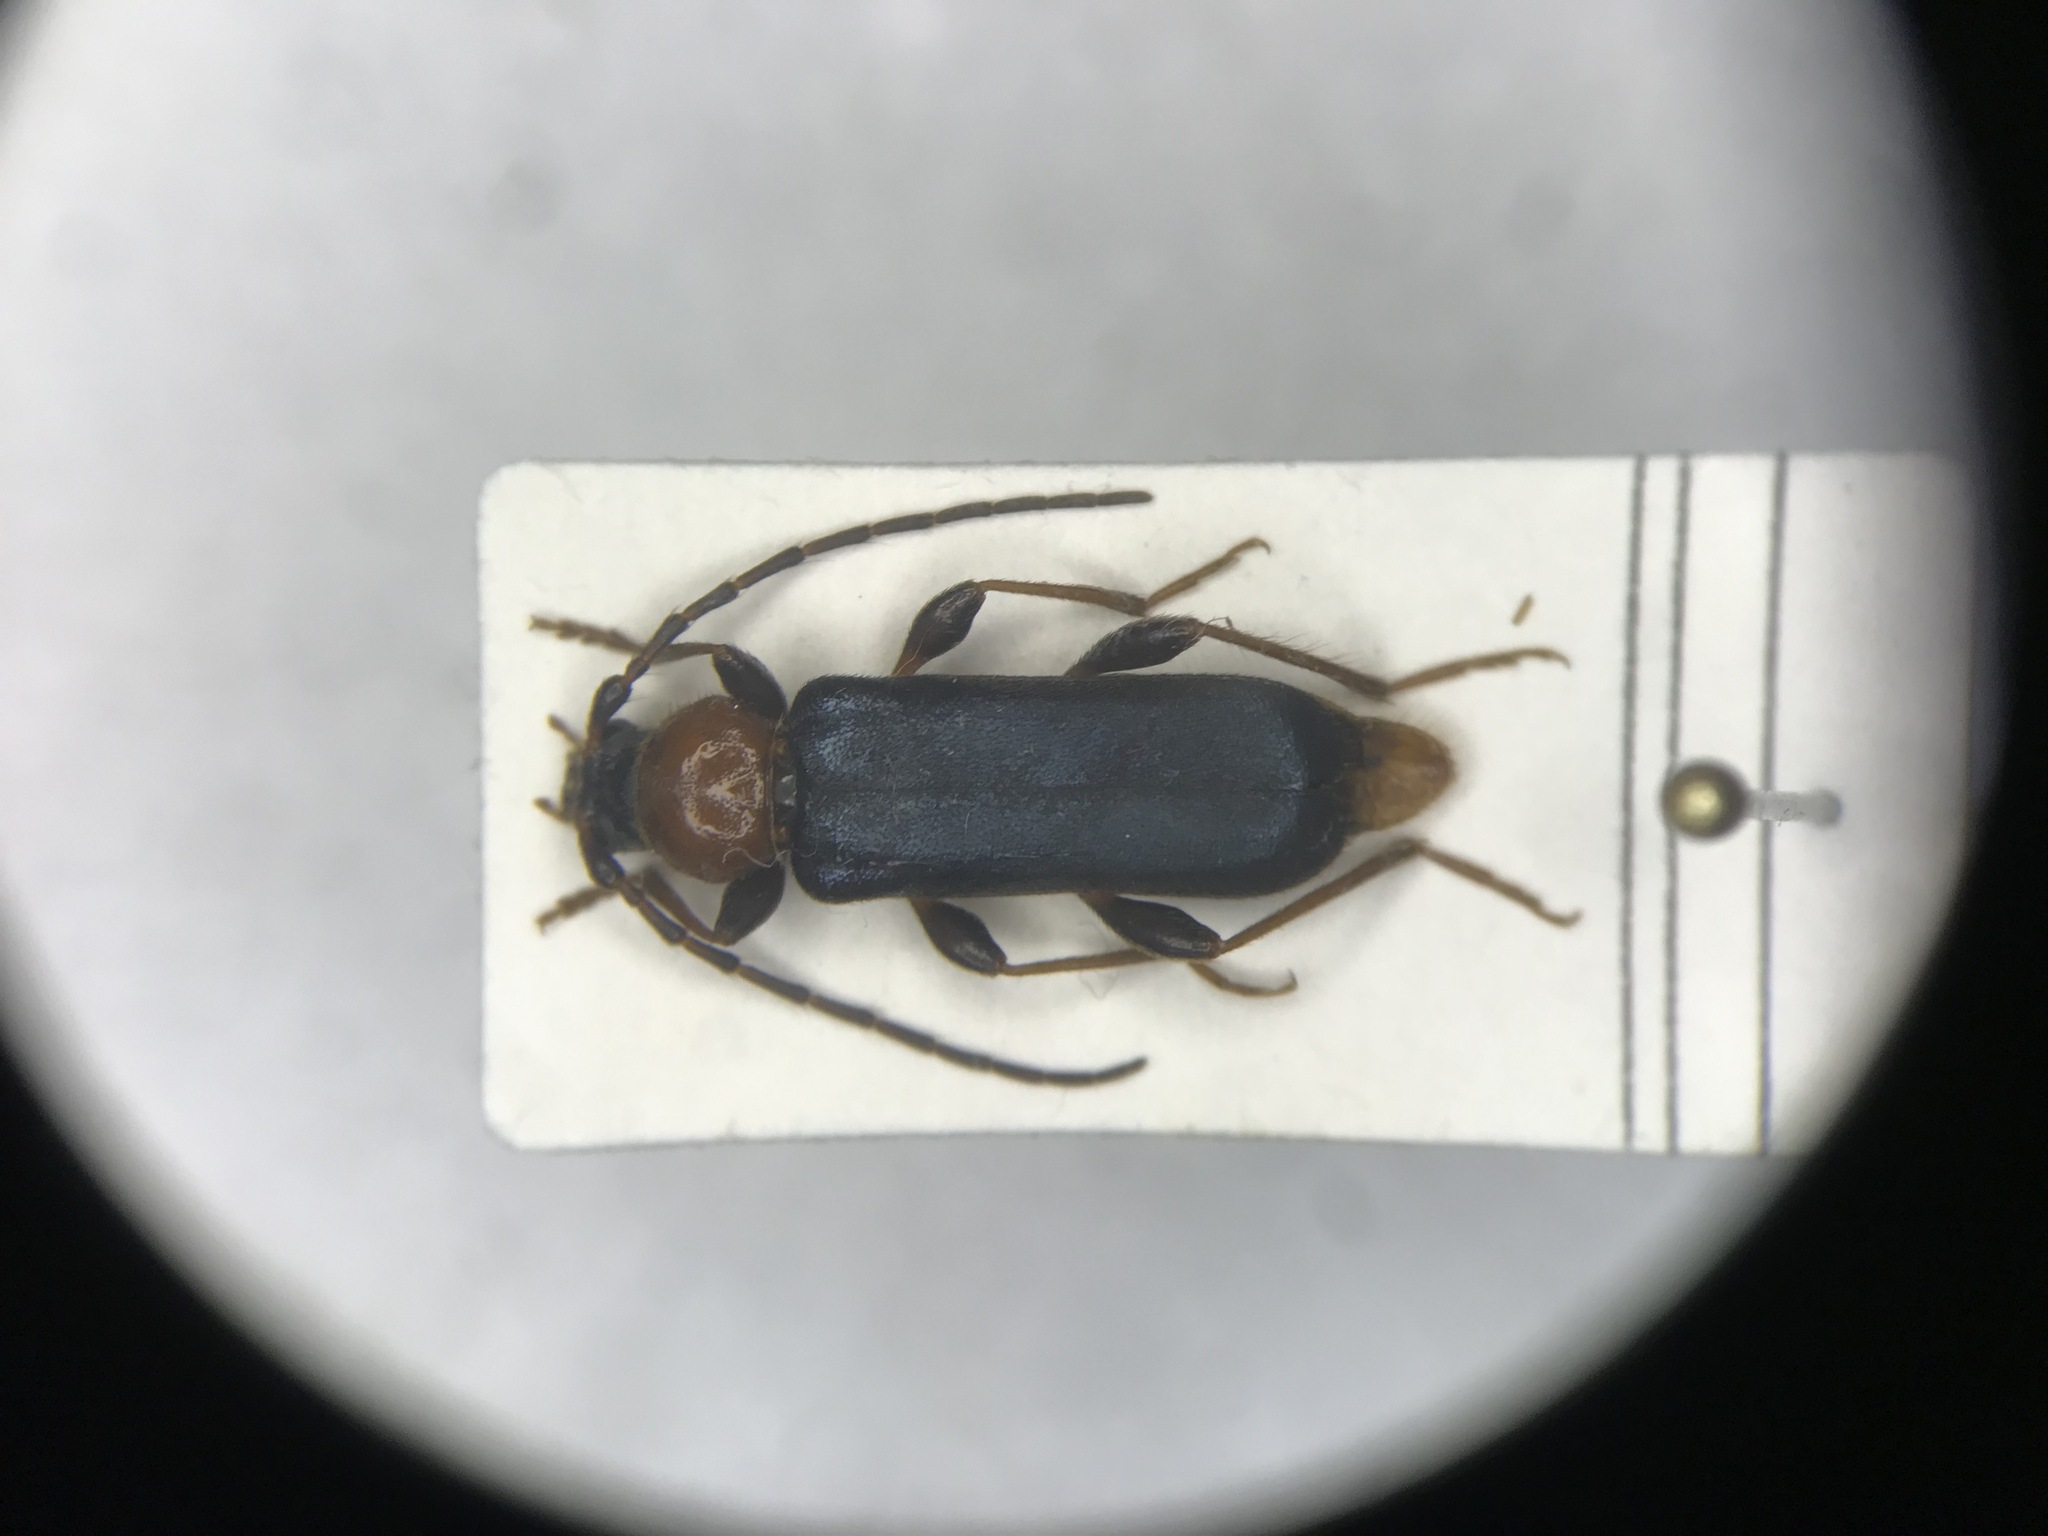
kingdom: Animalia
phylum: Arthropoda
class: Insecta
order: Coleoptera
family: Cerambycidae
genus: Phymatodes
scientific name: Phymatodes testaceus
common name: Long-horned beetle
